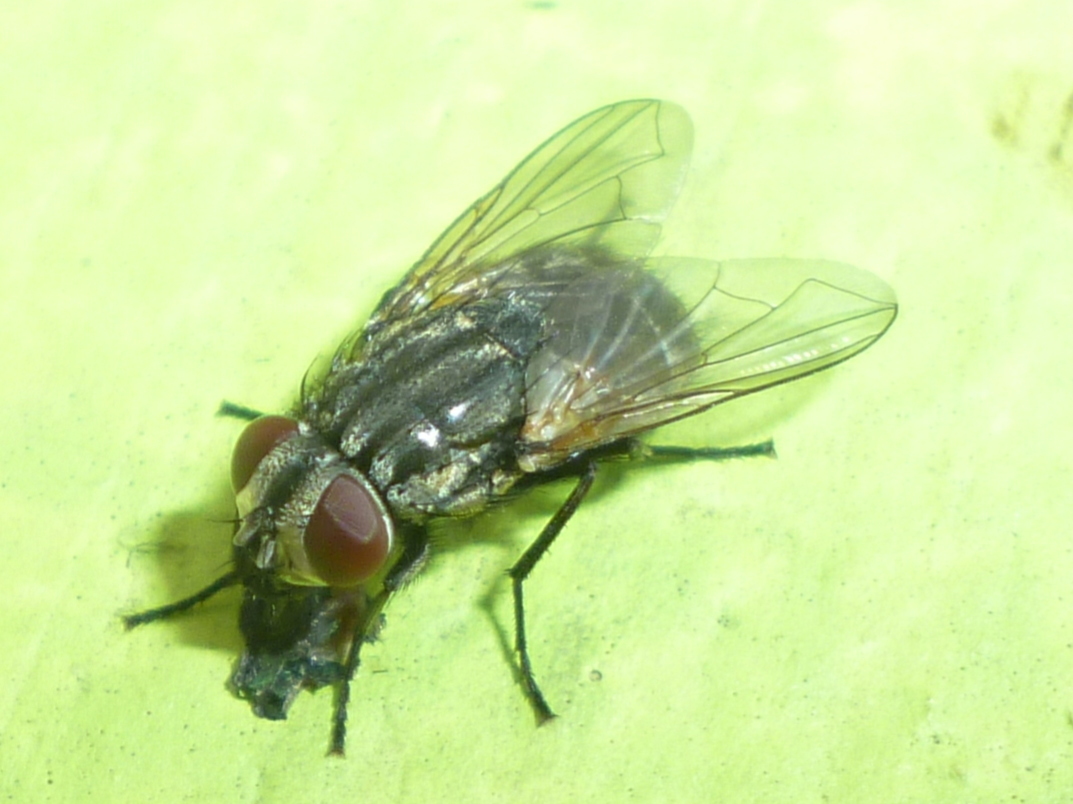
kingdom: Animalia
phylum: Arthropoda
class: Insecta
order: Diptera
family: Muscidae
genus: Musca
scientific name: Musca autumnalis
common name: Face fly
